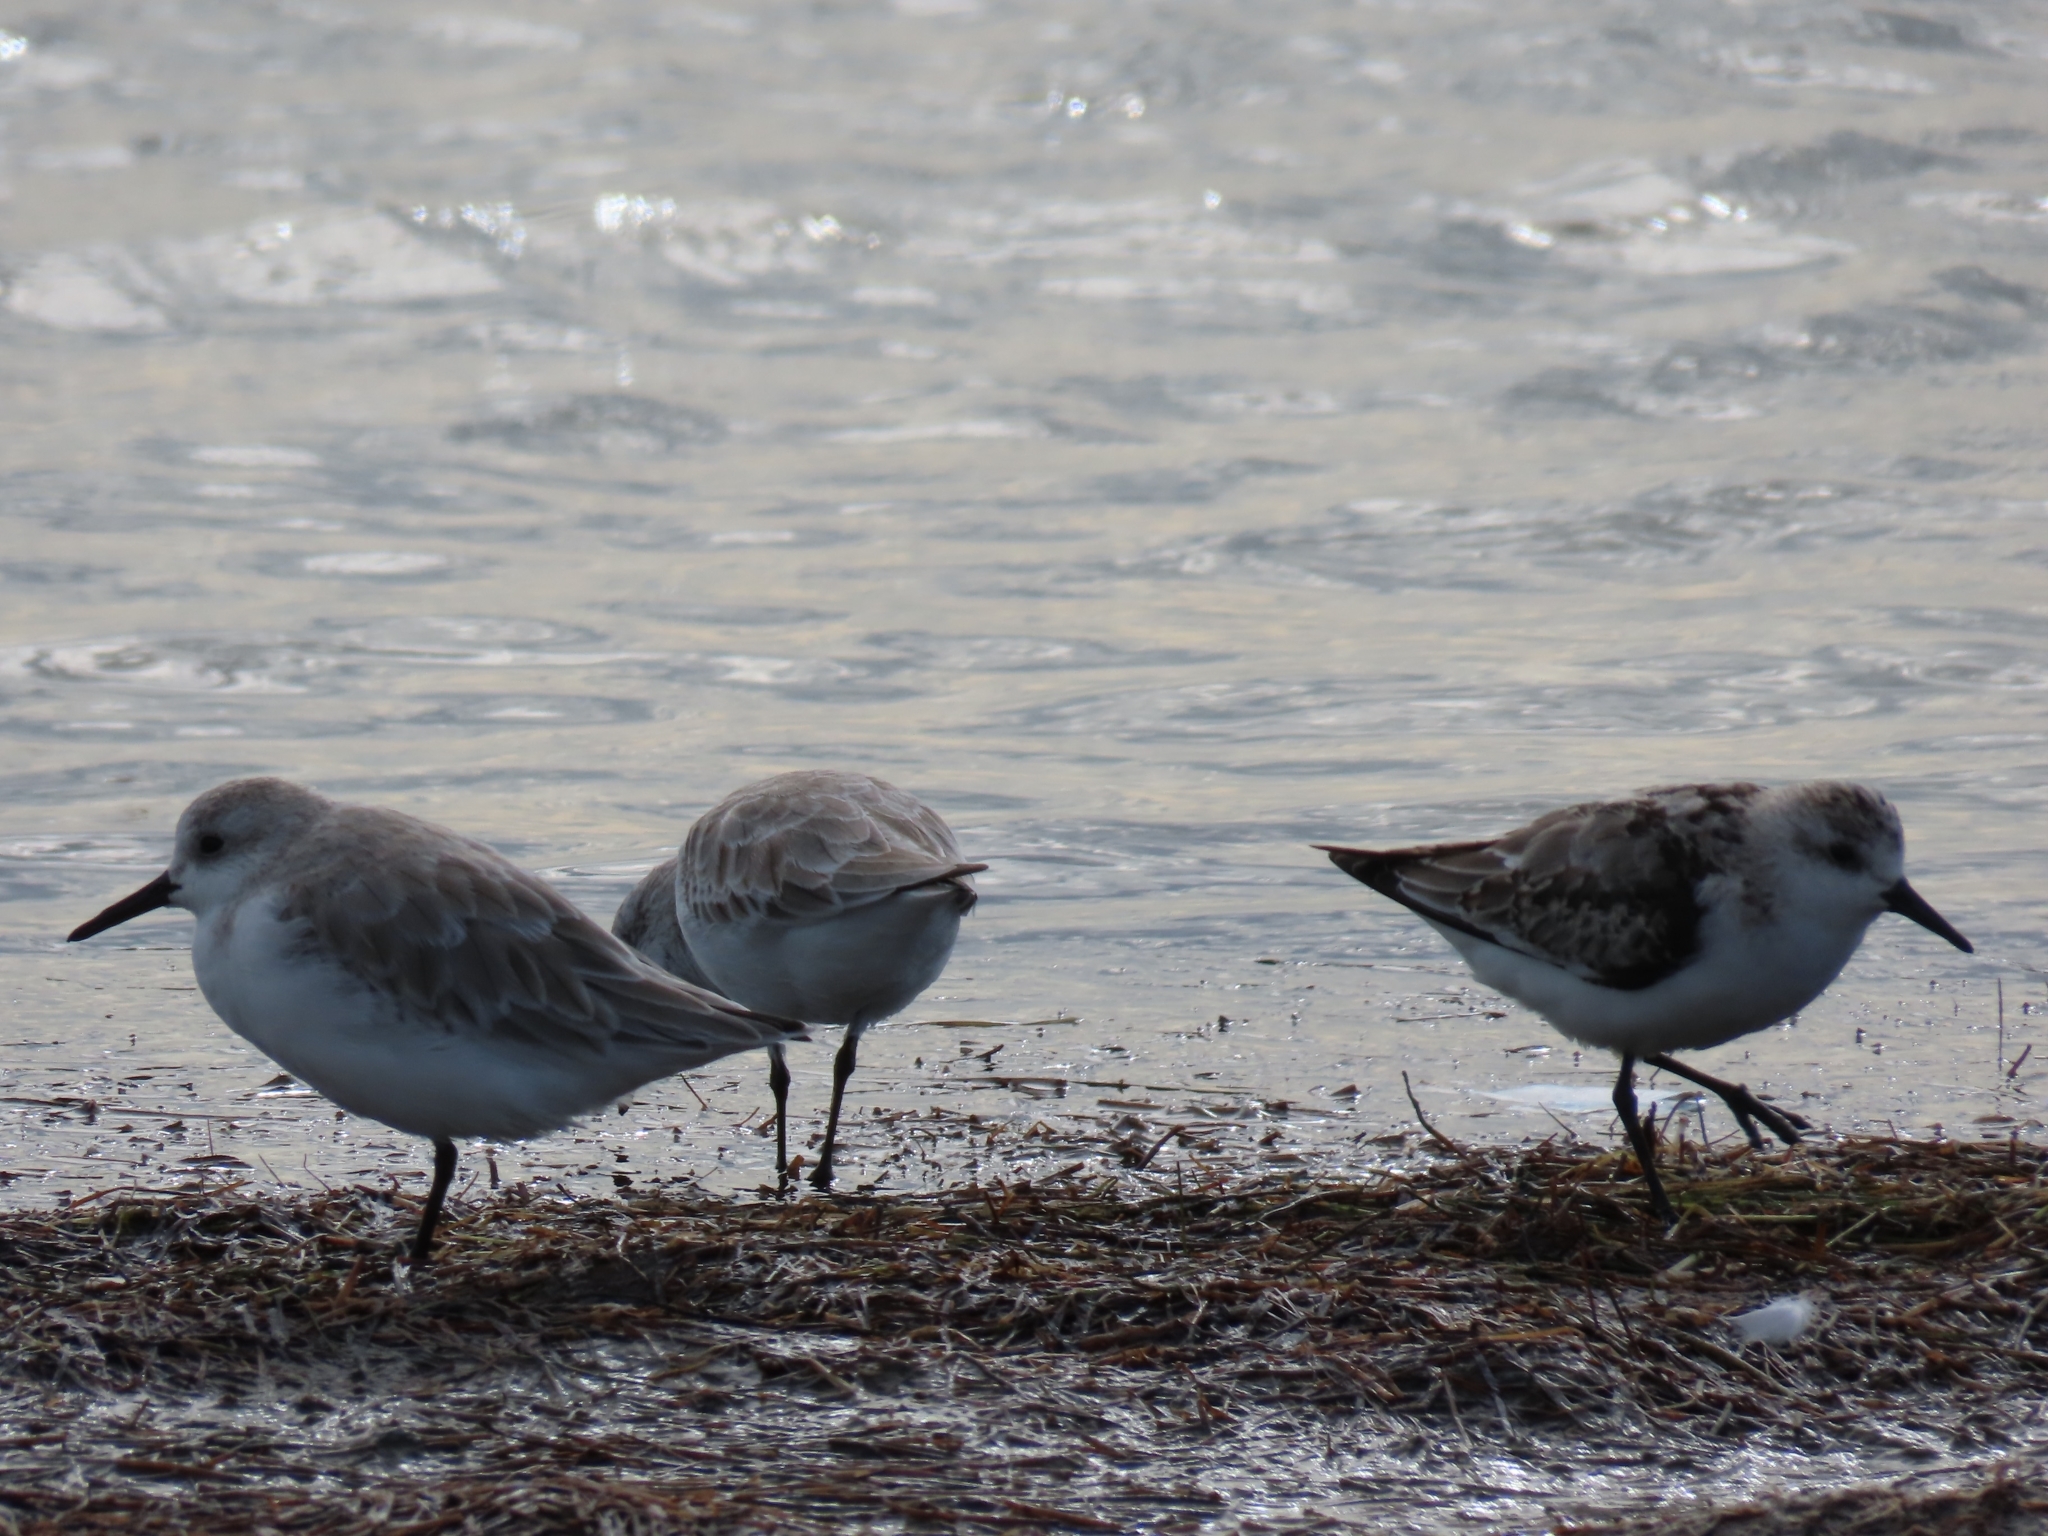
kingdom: Animalia
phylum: Chordata
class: Aves
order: Charadriiformes
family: Scolopacidae
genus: Calidris
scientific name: Calidris alba
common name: Sanderling
